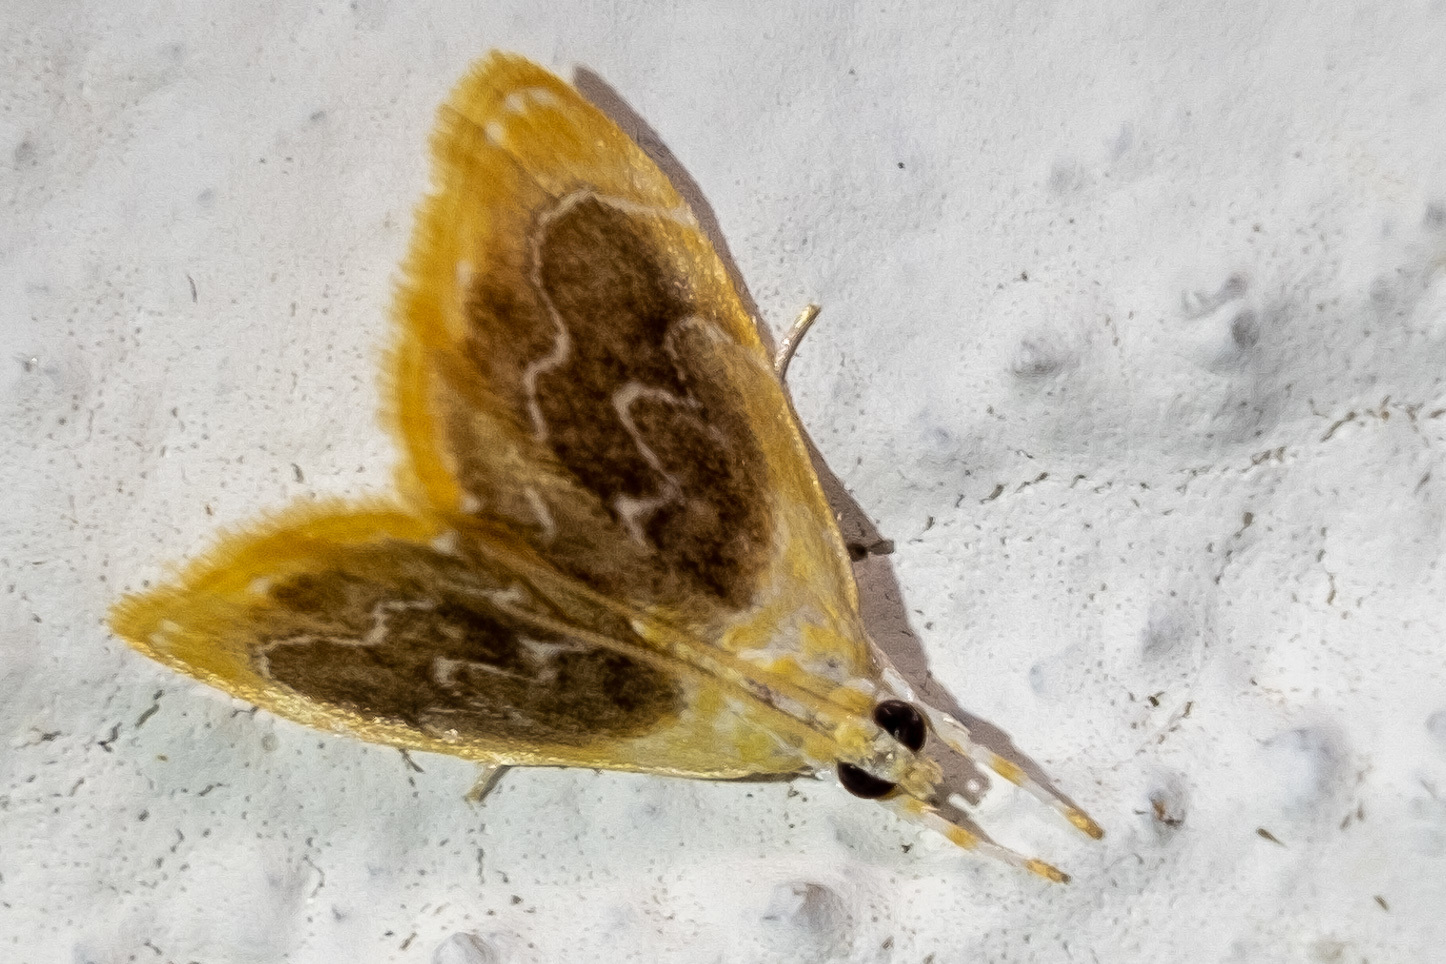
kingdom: Animalia
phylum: Arthropoda
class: Insecta
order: Lepidoptera
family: Crambidae
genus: Glaphyria
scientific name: Glaphyria fulminalis
